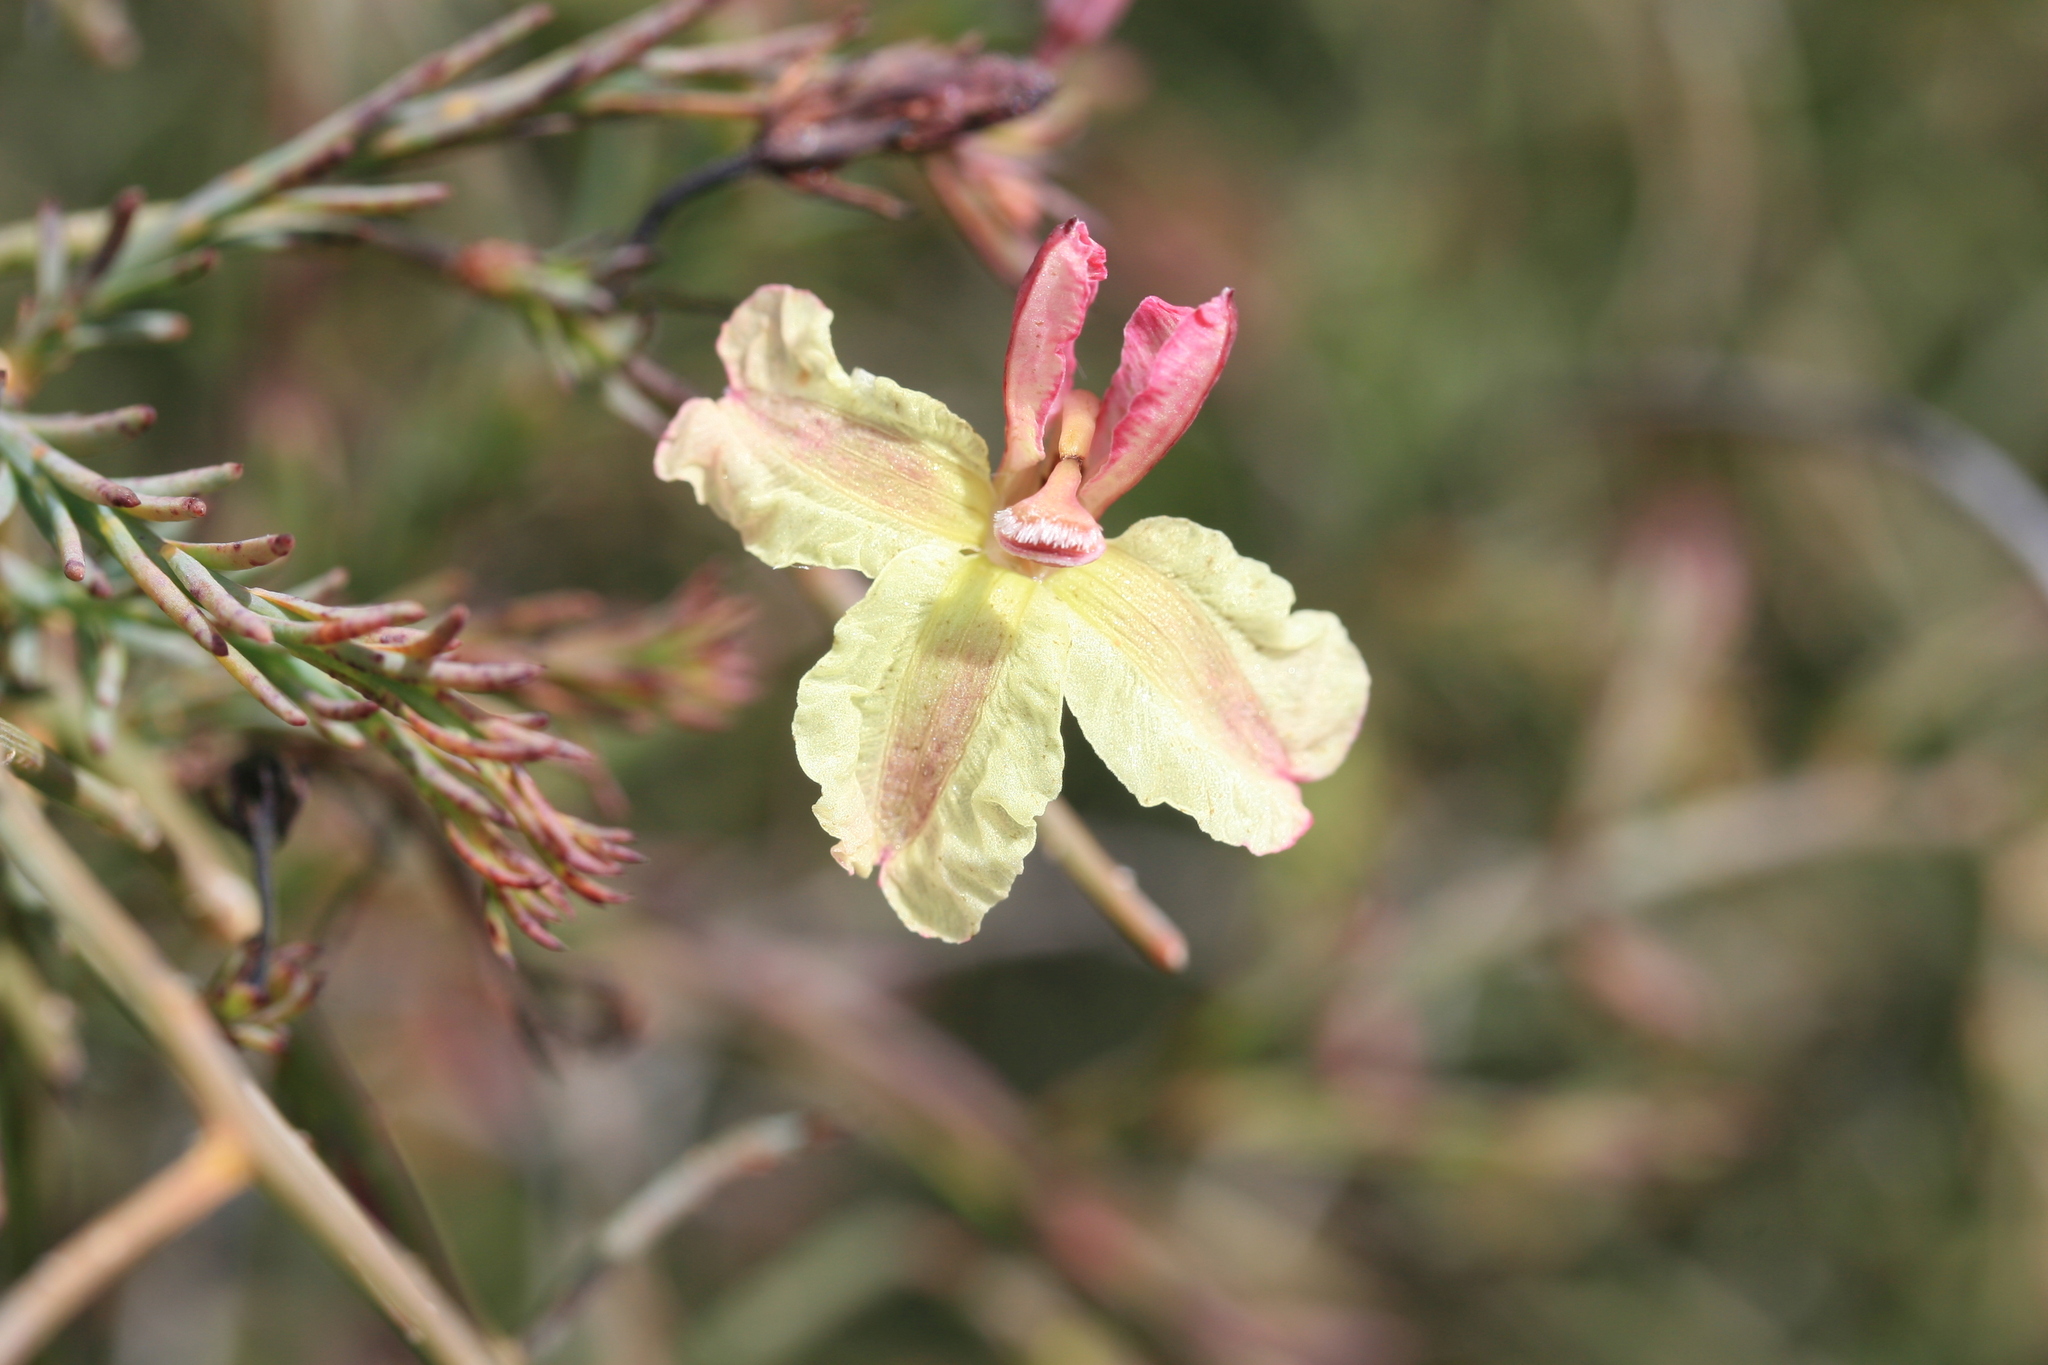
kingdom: Plantae
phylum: Tracheophyta
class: Magnoliopsida
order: Asterales
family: Goodeniaceae
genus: Lechenaultia
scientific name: Lechenaultia linarioides
